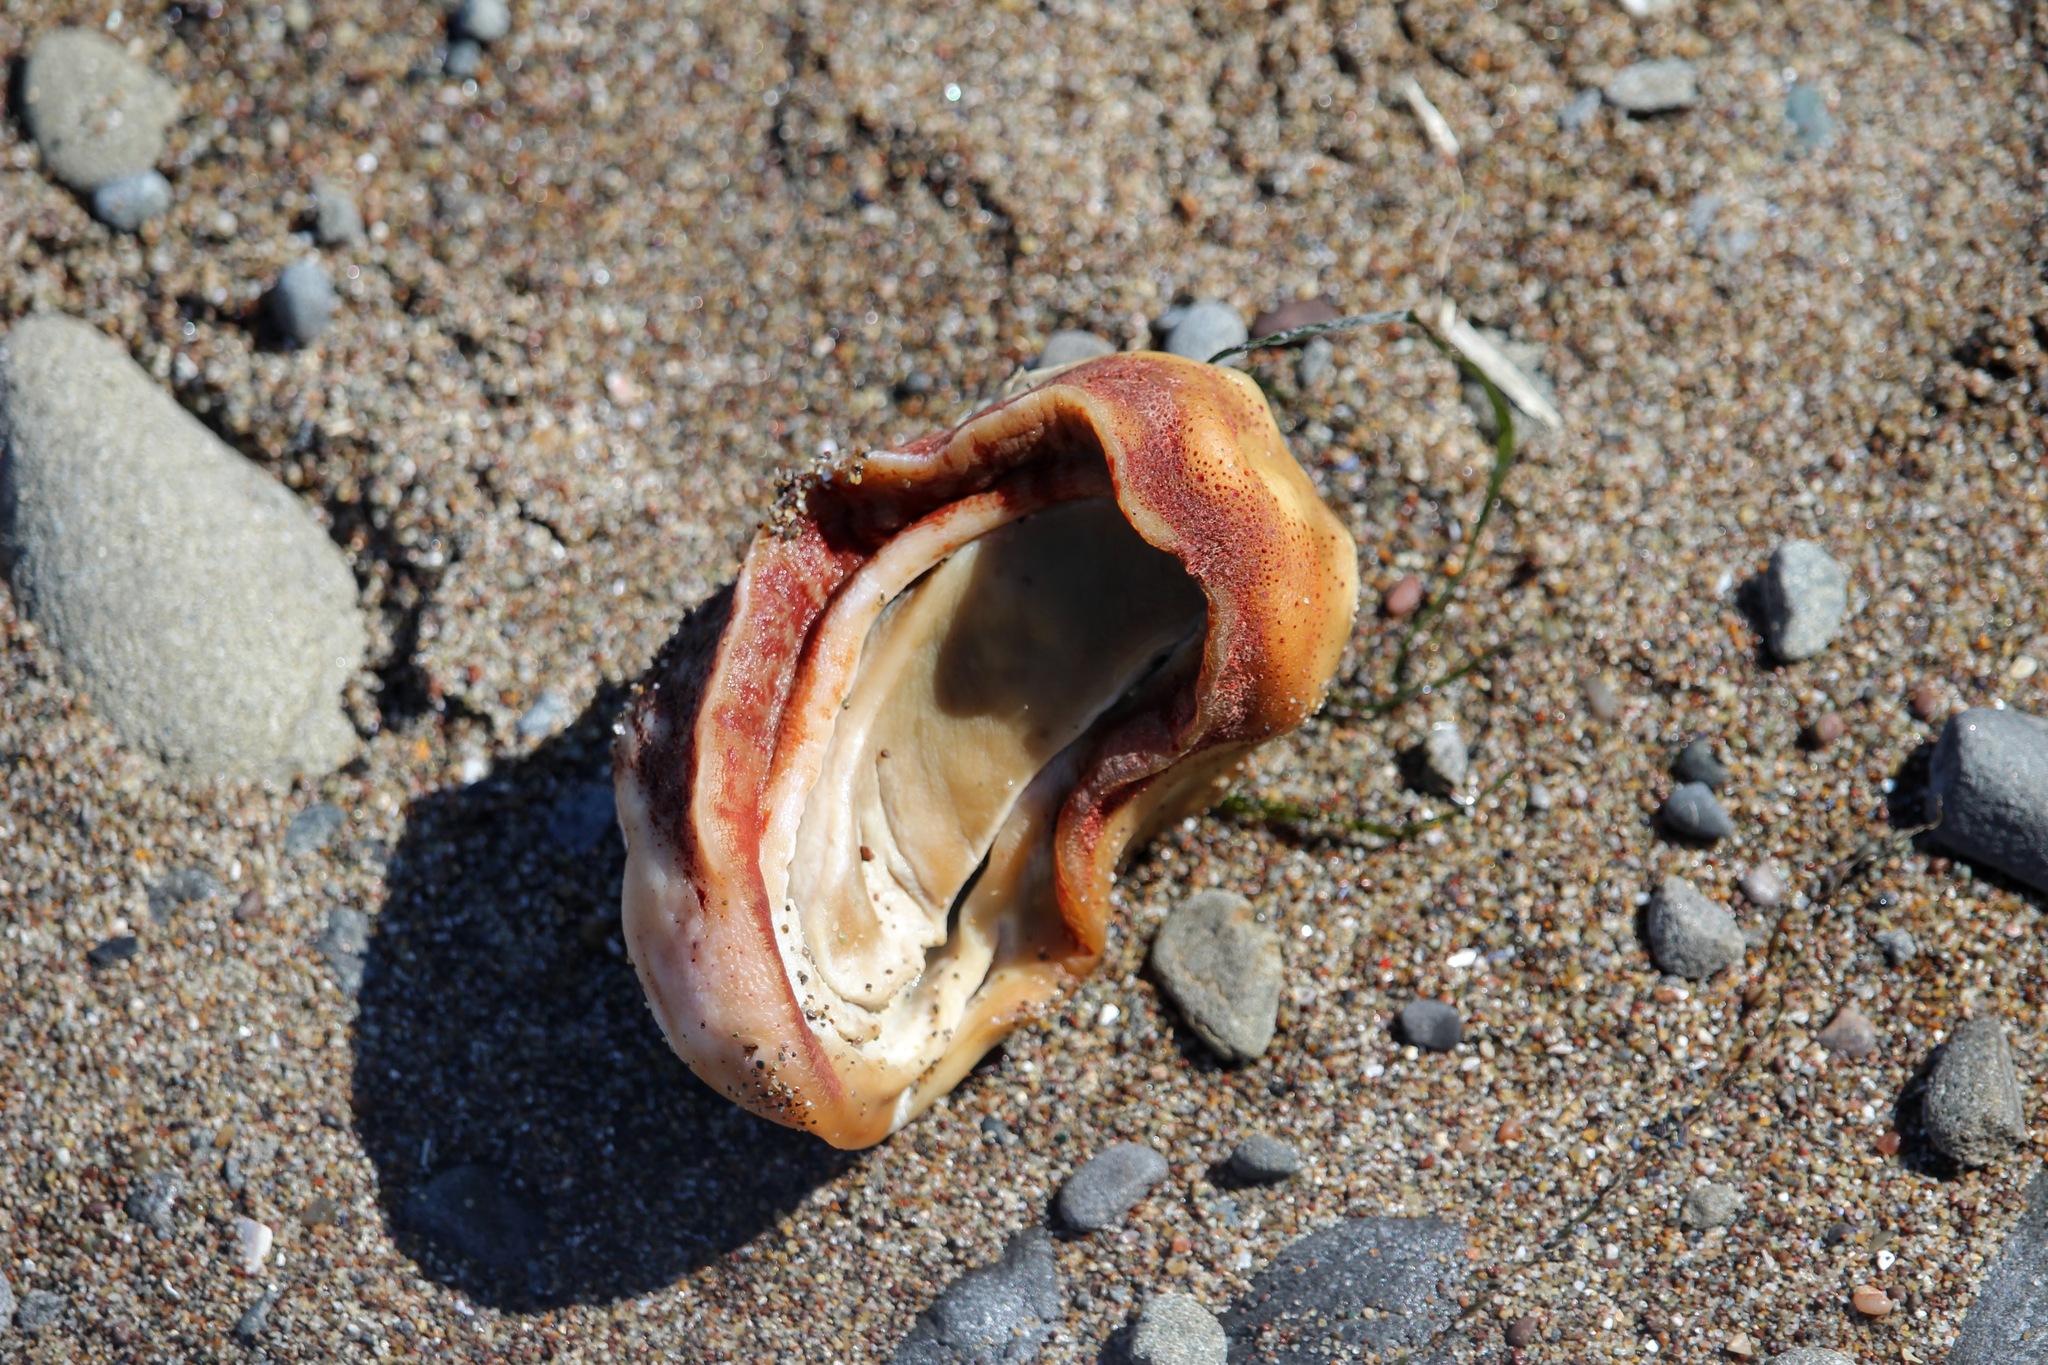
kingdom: Animalia
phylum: Mollusca
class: Polyplacophora
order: Chitonida
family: Acanthochitonidae
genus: Cryptochiton
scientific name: Cryptochiton stelleri
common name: Giant pacific chiton
